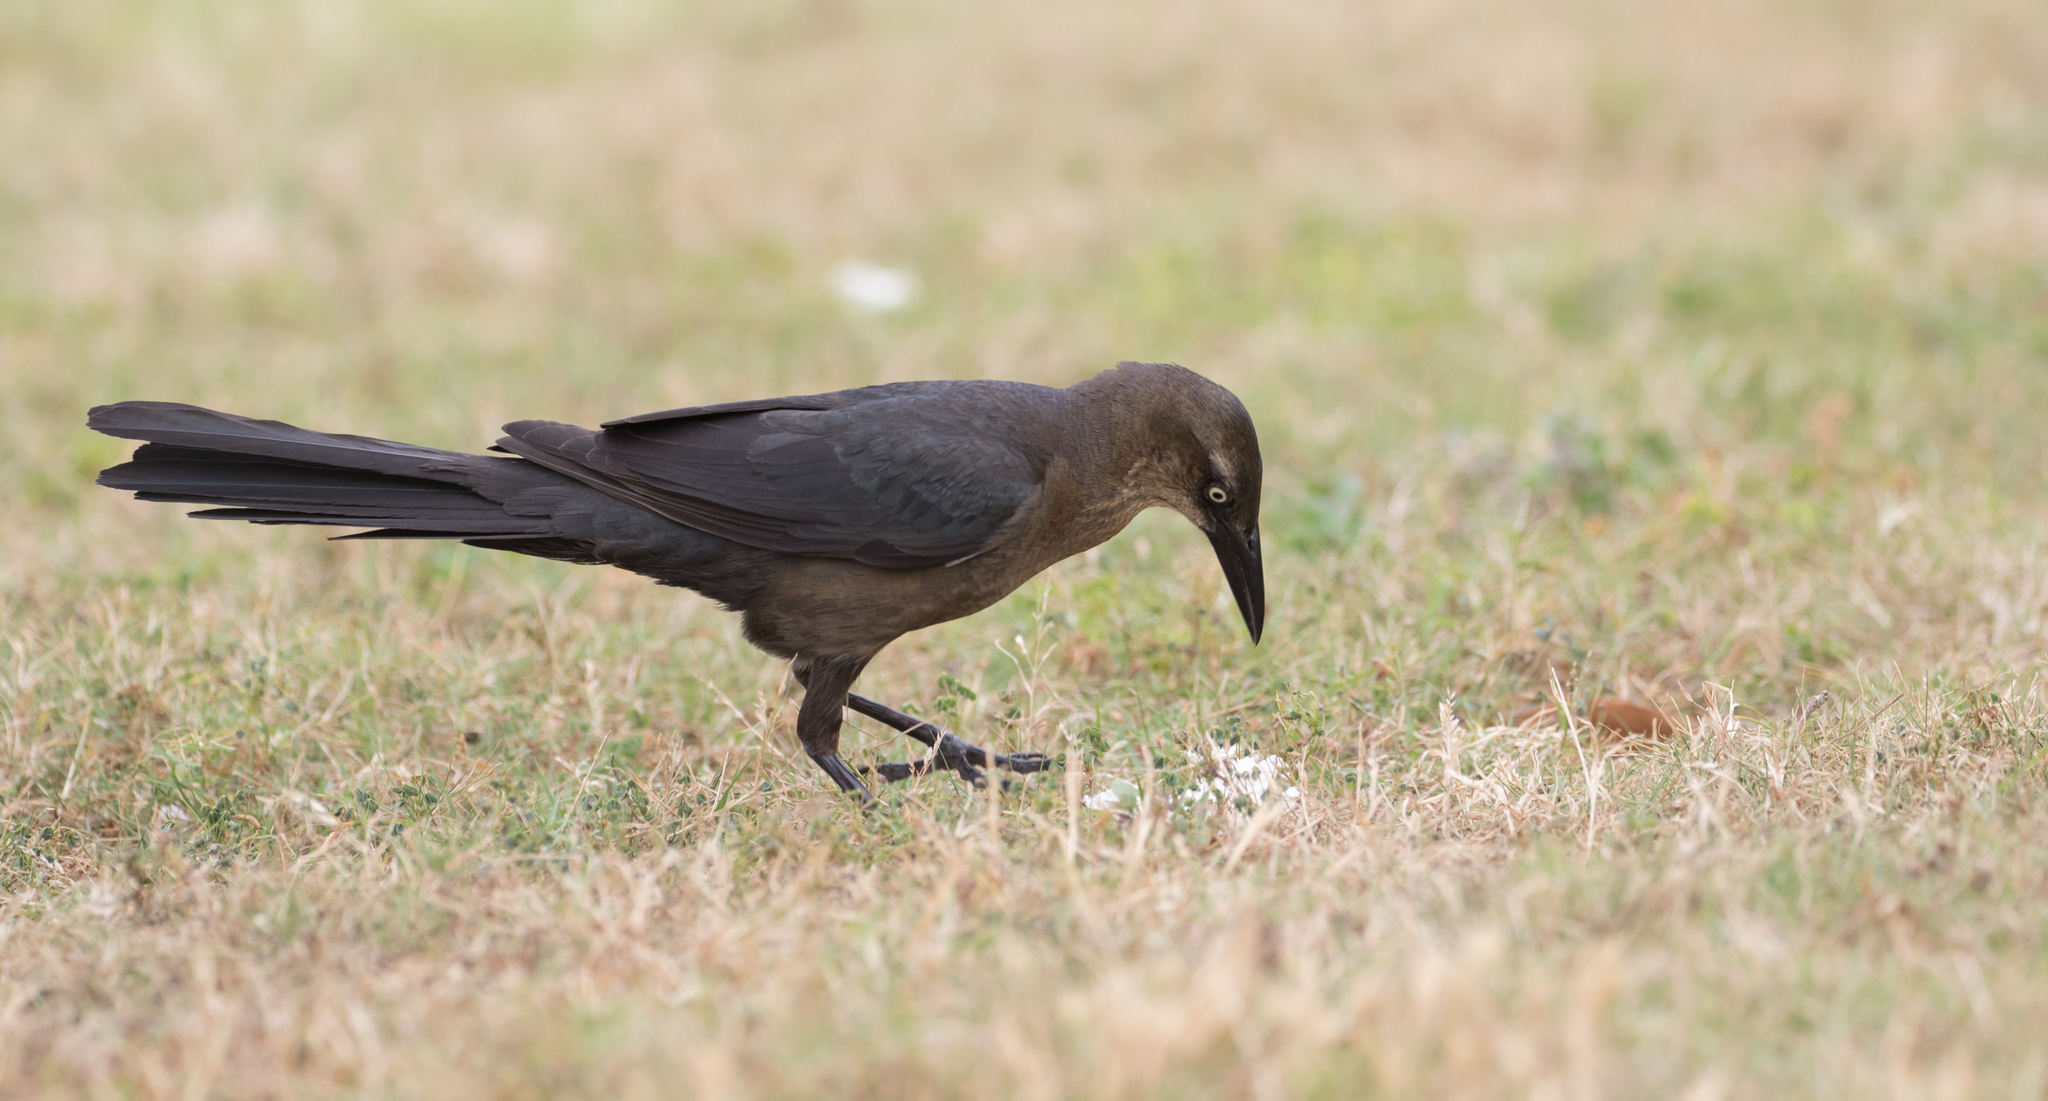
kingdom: Animalia
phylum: Chordata
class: Aves
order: Passeriformes
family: Icteridae
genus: Quiscalus
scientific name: Quiscalus mexicanus
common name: Great-tailed grackle
